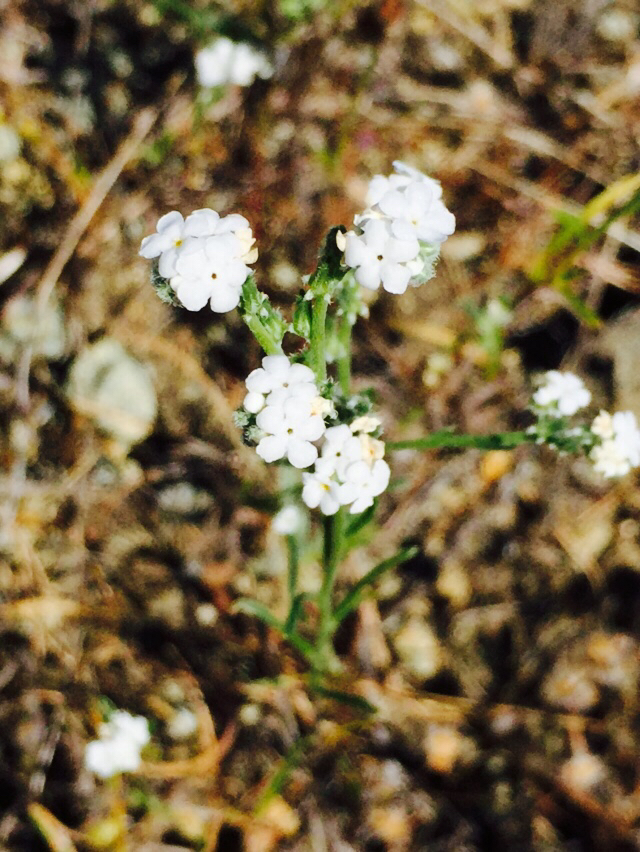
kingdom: Plantae
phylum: Tracheophyta
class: Magnoliopsida
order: Boraginales
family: Boraginaceae
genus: Cryptantha
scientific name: Cryptantha flaccida
